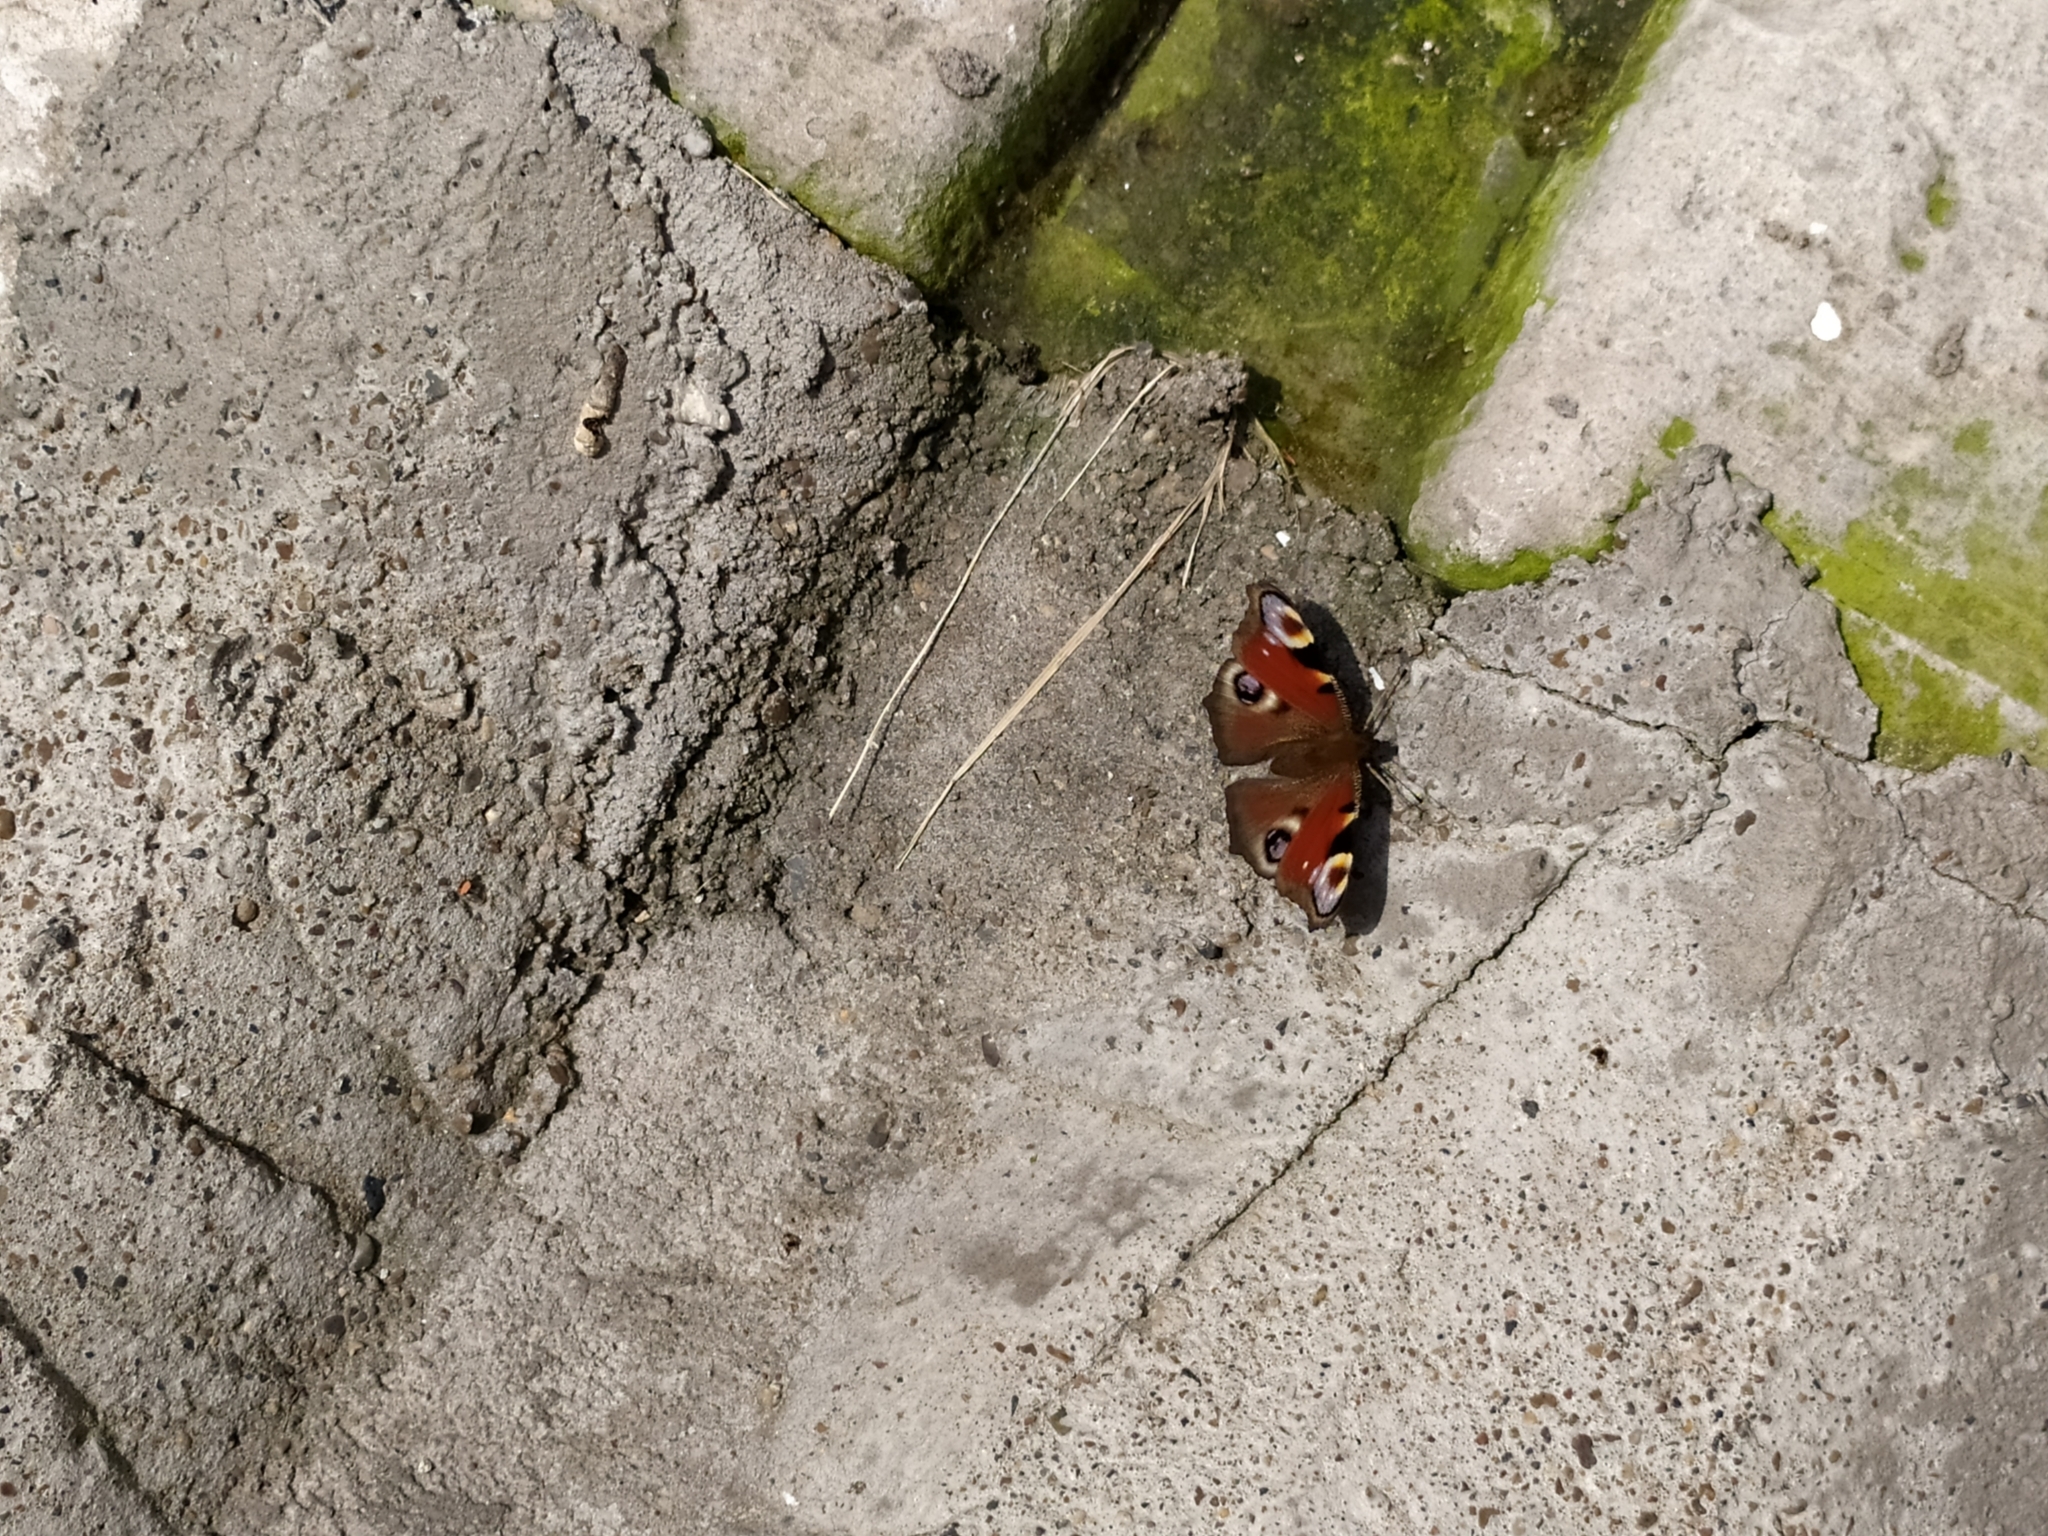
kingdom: Animalia
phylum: Arthropoda
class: Insecta
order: Lepidoptera
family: Nymphalidae
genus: Aglais
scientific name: Aglais io
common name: Peacock
